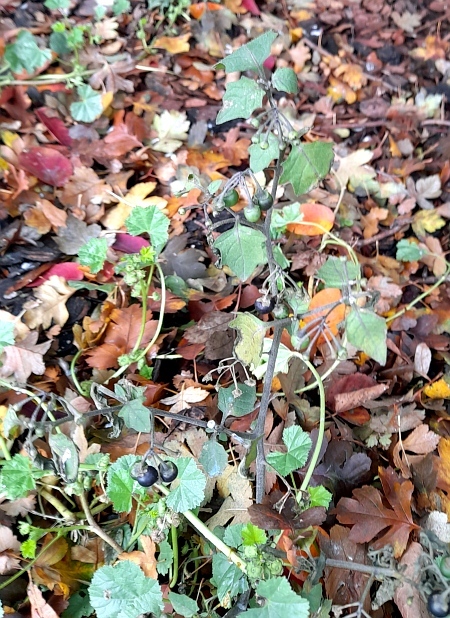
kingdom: Plantae
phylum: Tracheophyta
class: Magnoliopsida
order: Solanales
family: Solanaceae
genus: Solanum
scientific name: Solanum nigrum
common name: Black nightshade
